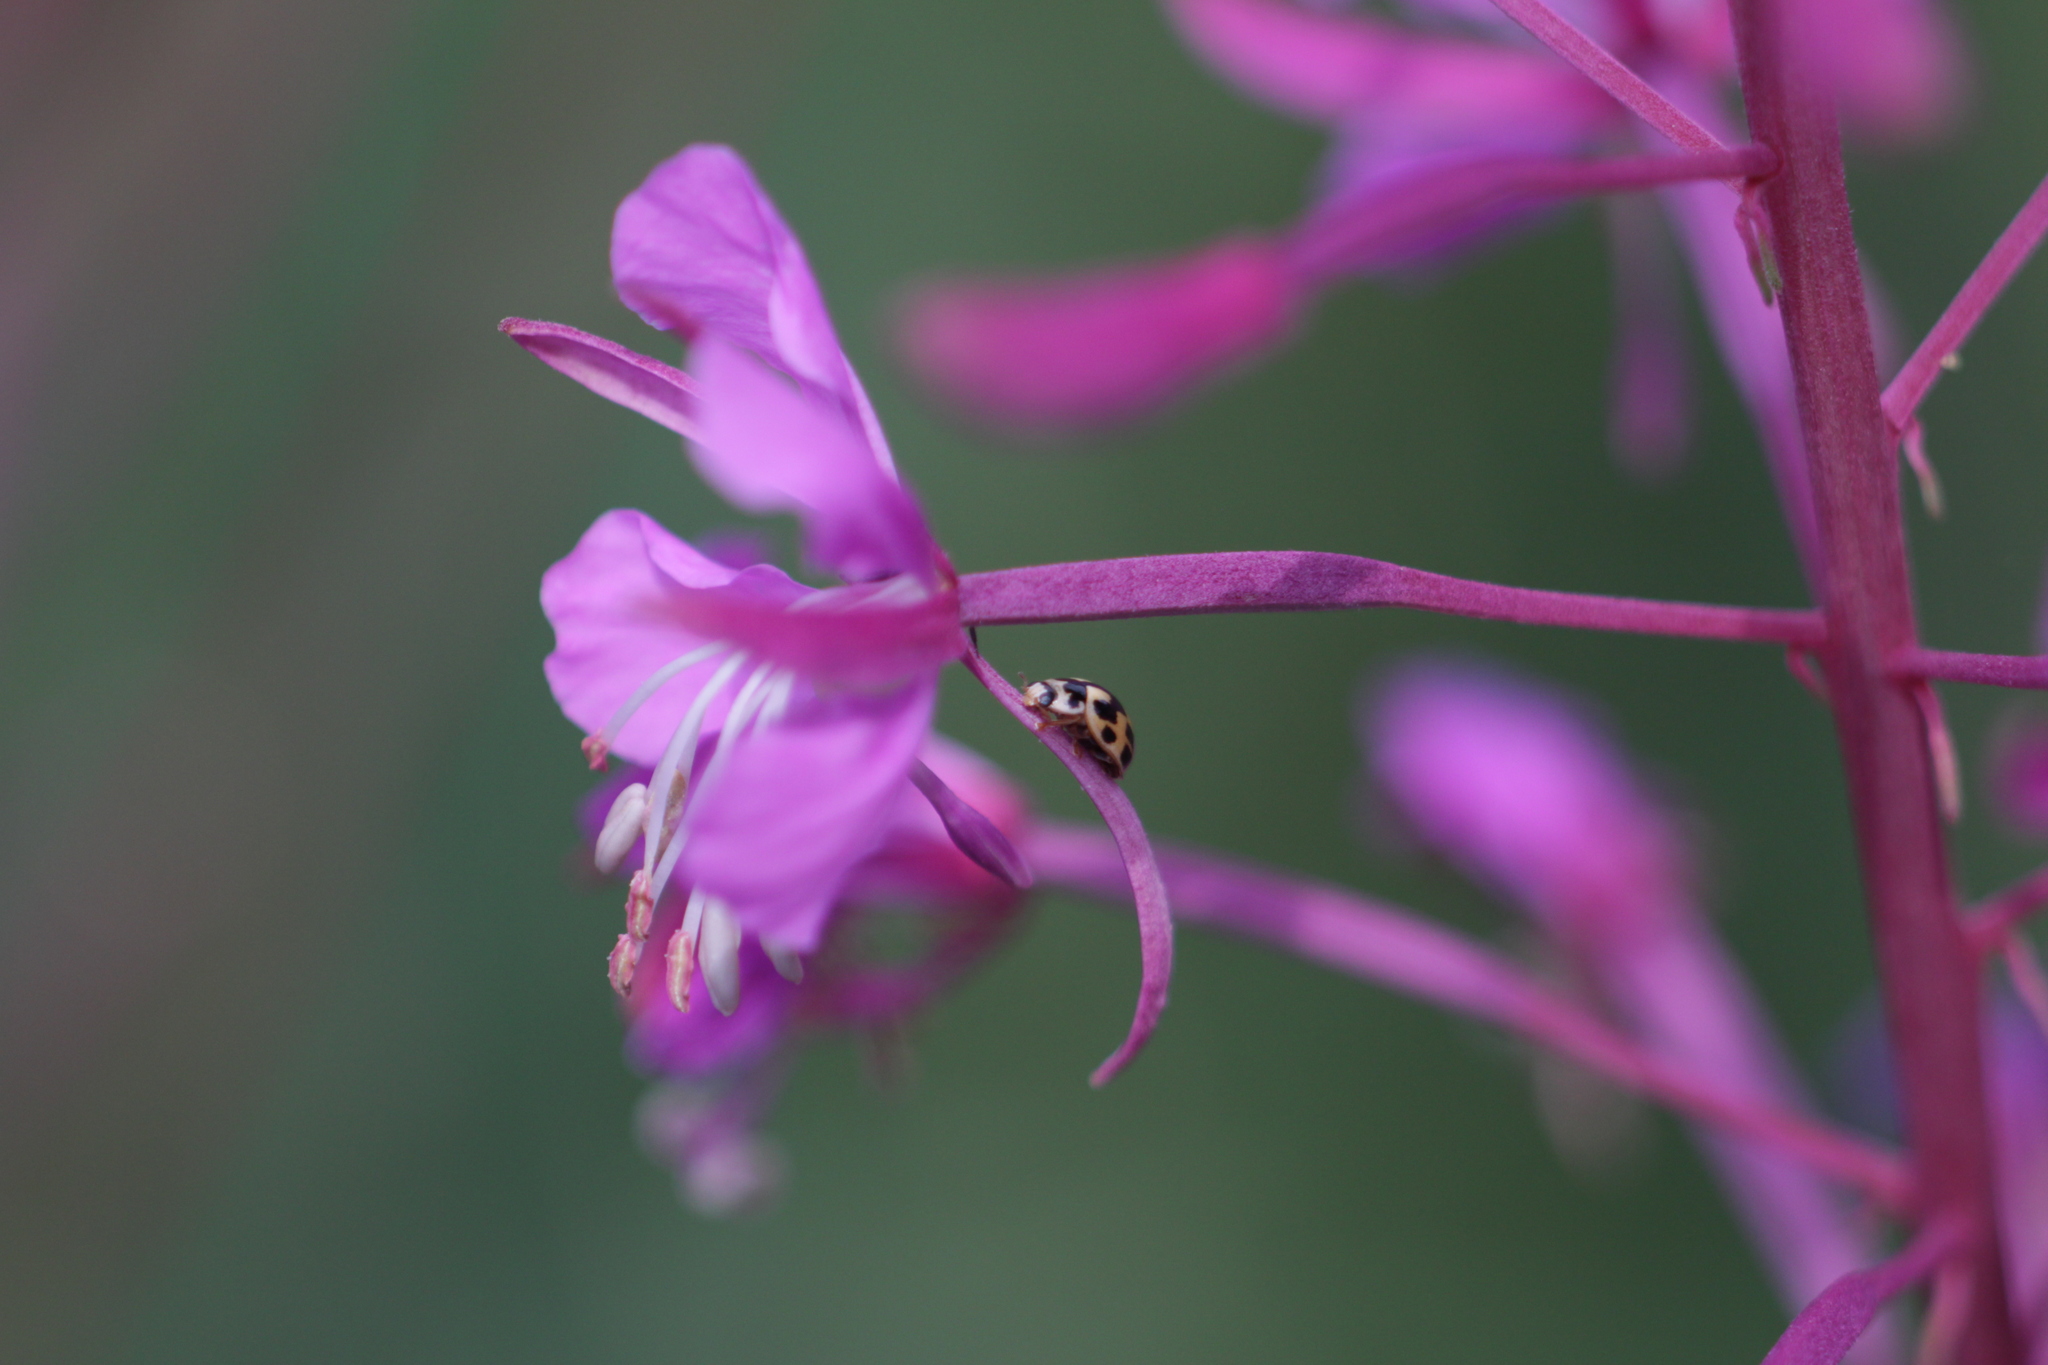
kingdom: Animalia
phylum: Arthropoda
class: Insecta
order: Coleoptera
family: Coccinellidae
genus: Propylaea
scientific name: Propylaea quatuordecimpunctata
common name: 14-spotted ladybird beetle
